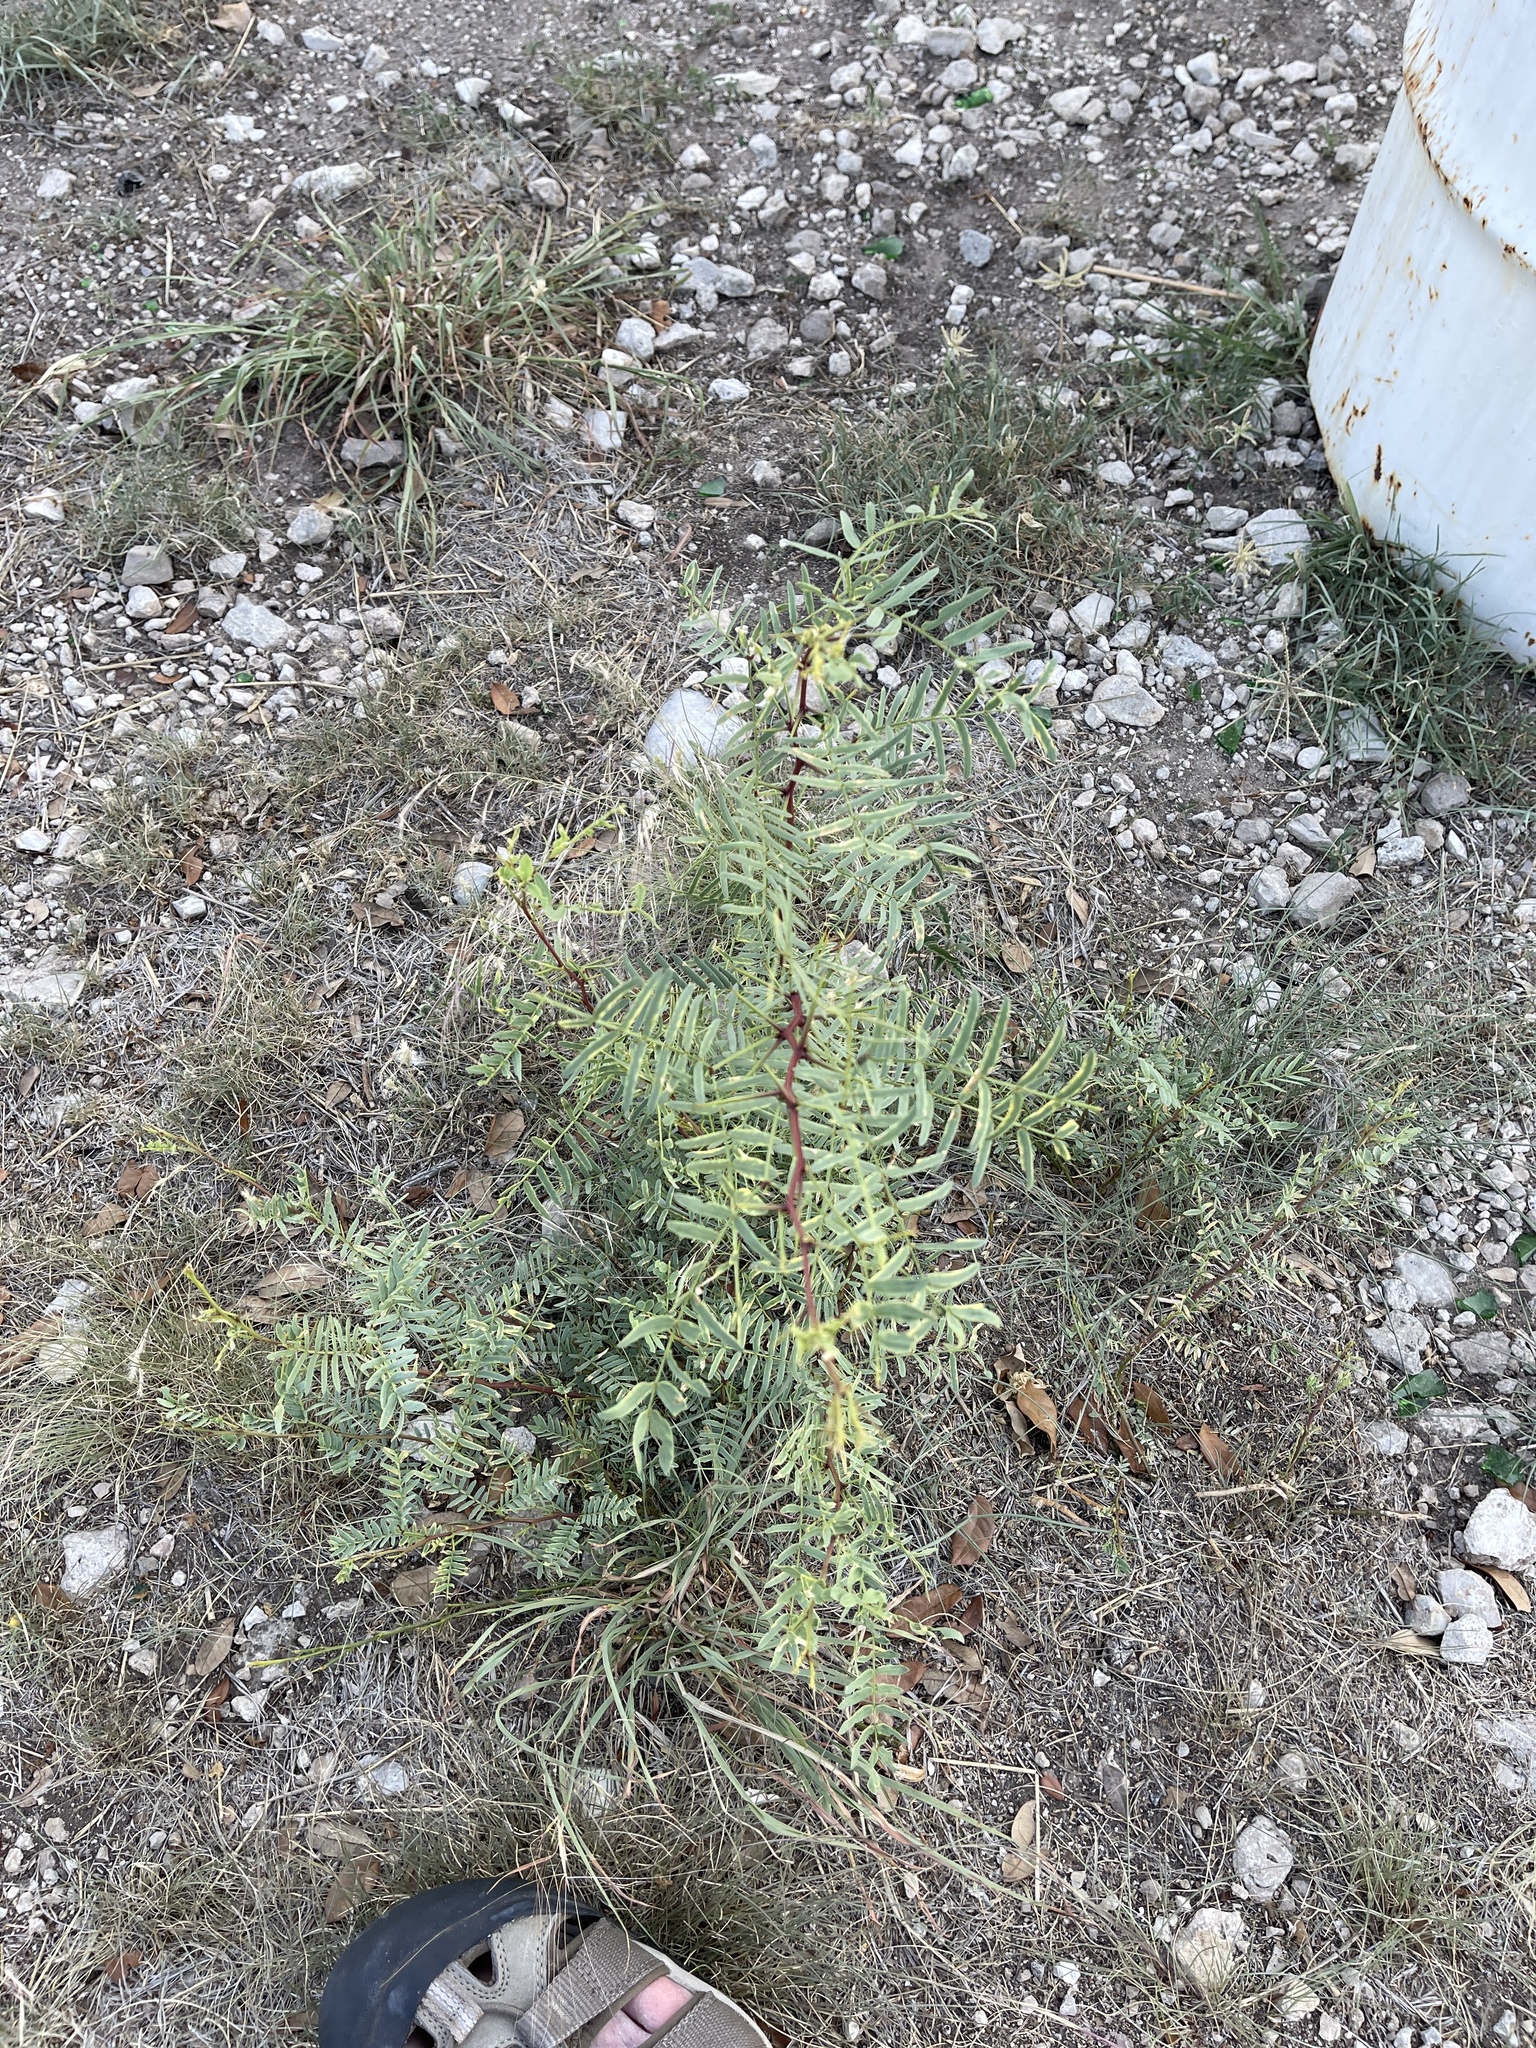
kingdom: Plantae
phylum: Tracheophyta
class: Magnoliopsida
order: Fabales
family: Fabaceae
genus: Prosopis
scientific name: Prosopis glandulosa
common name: Honey mesquite
